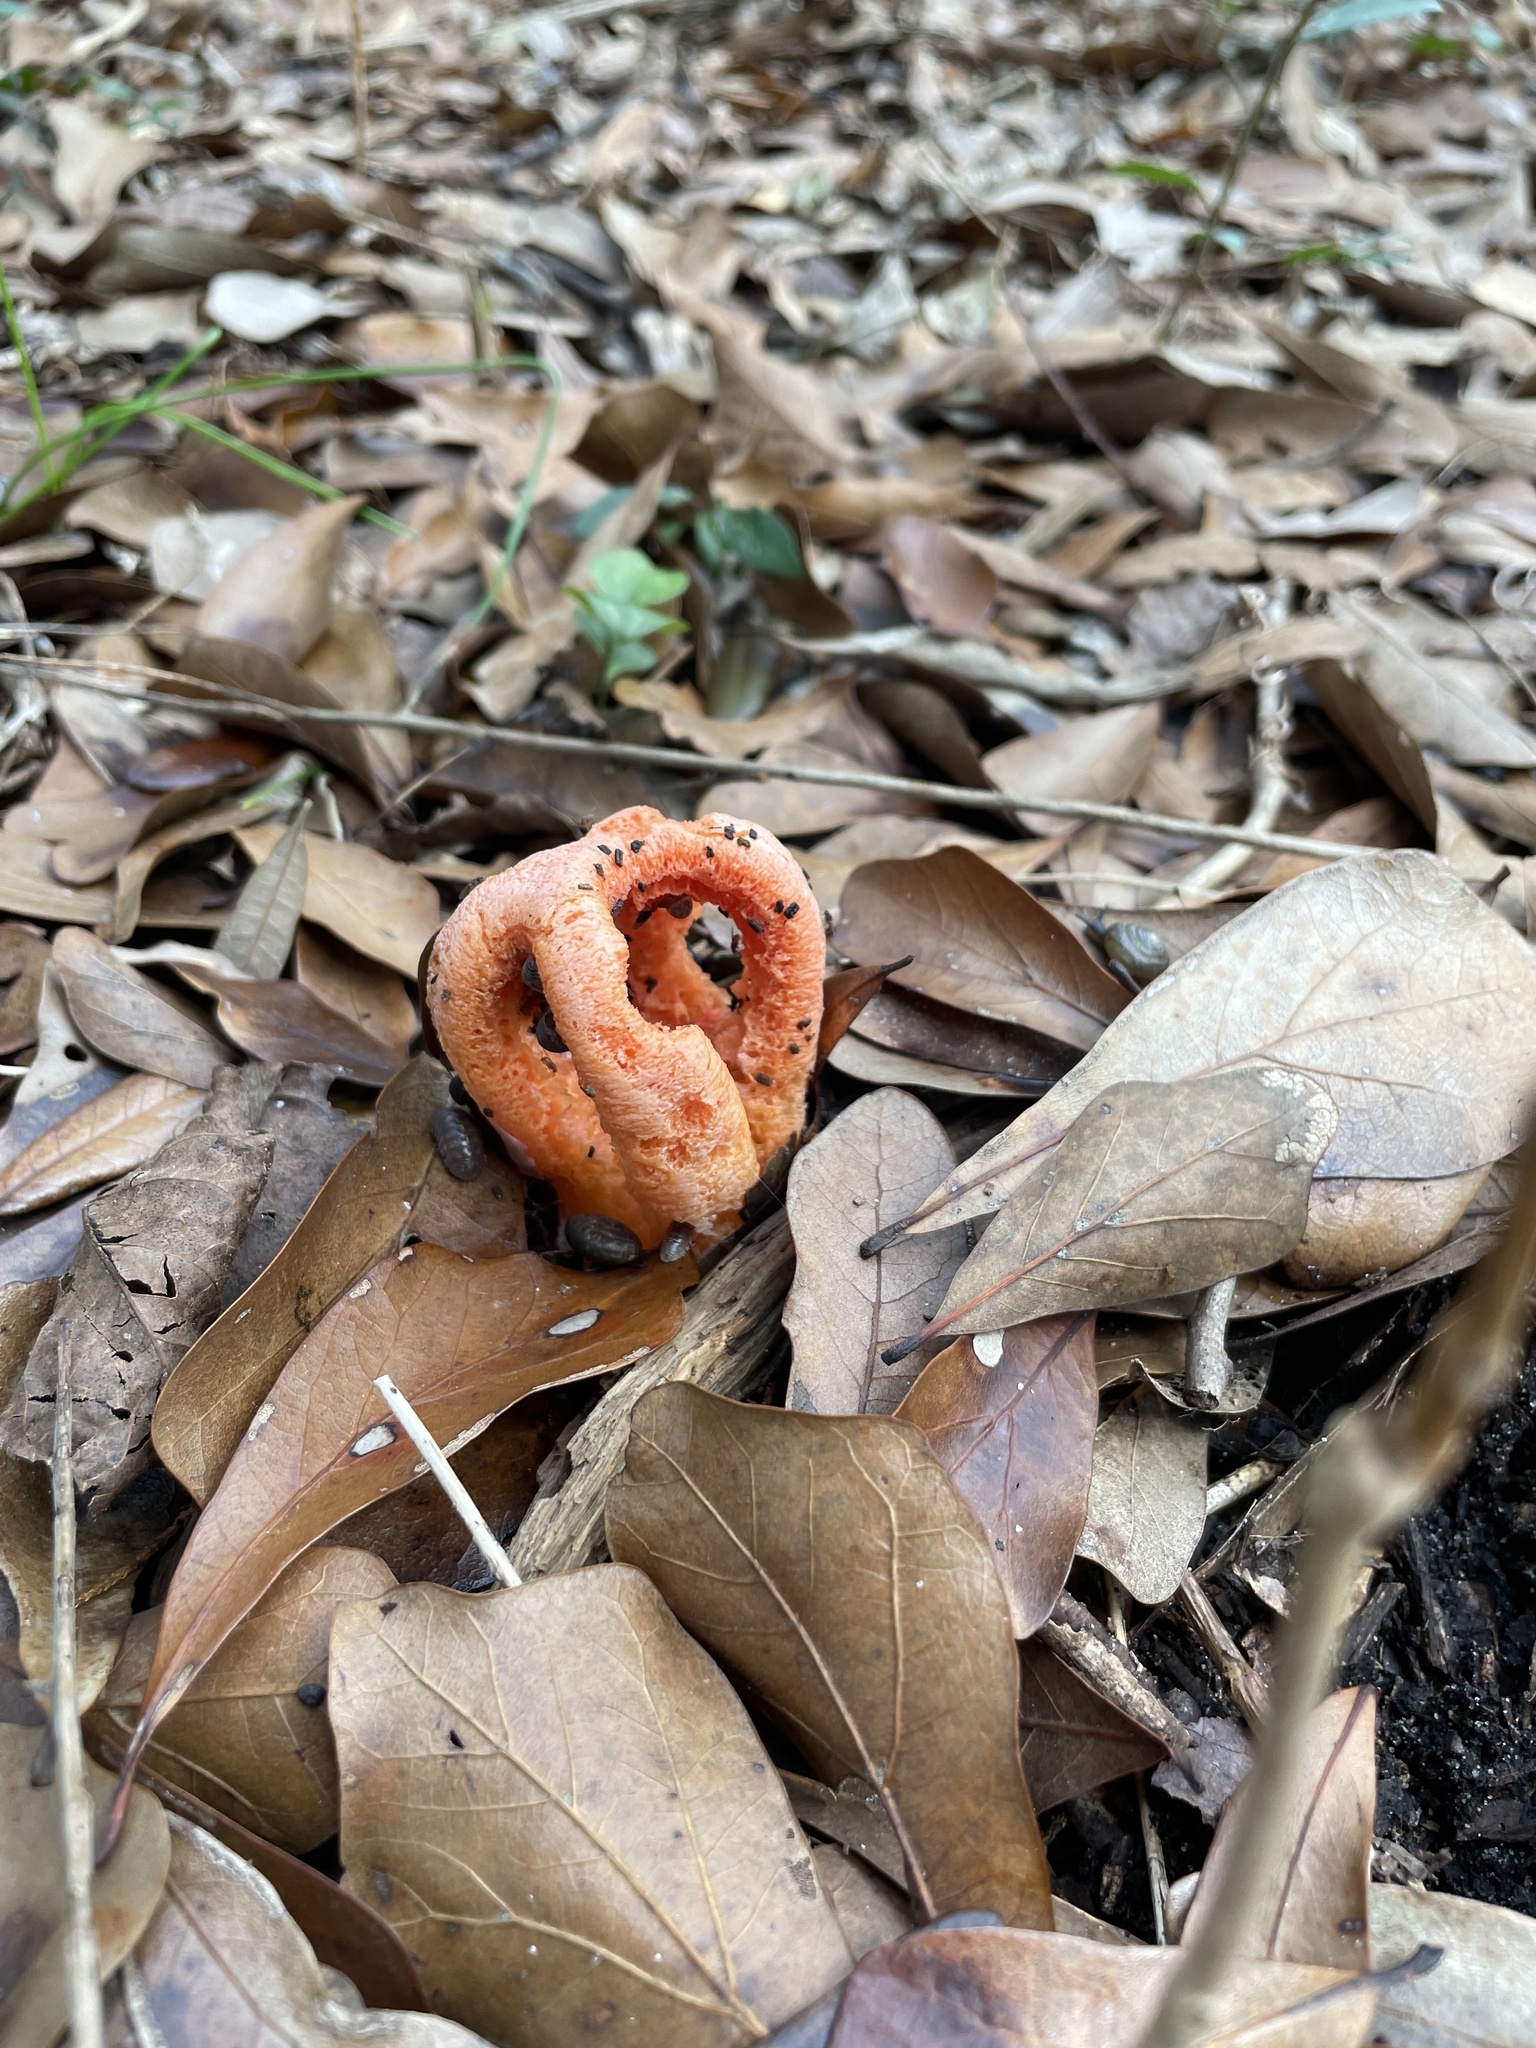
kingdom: Fungi
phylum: Basidiomycota
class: Agaricomycetes
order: Phallales
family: Phallaceae
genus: Clathrus
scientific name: Clathrus columnatus
